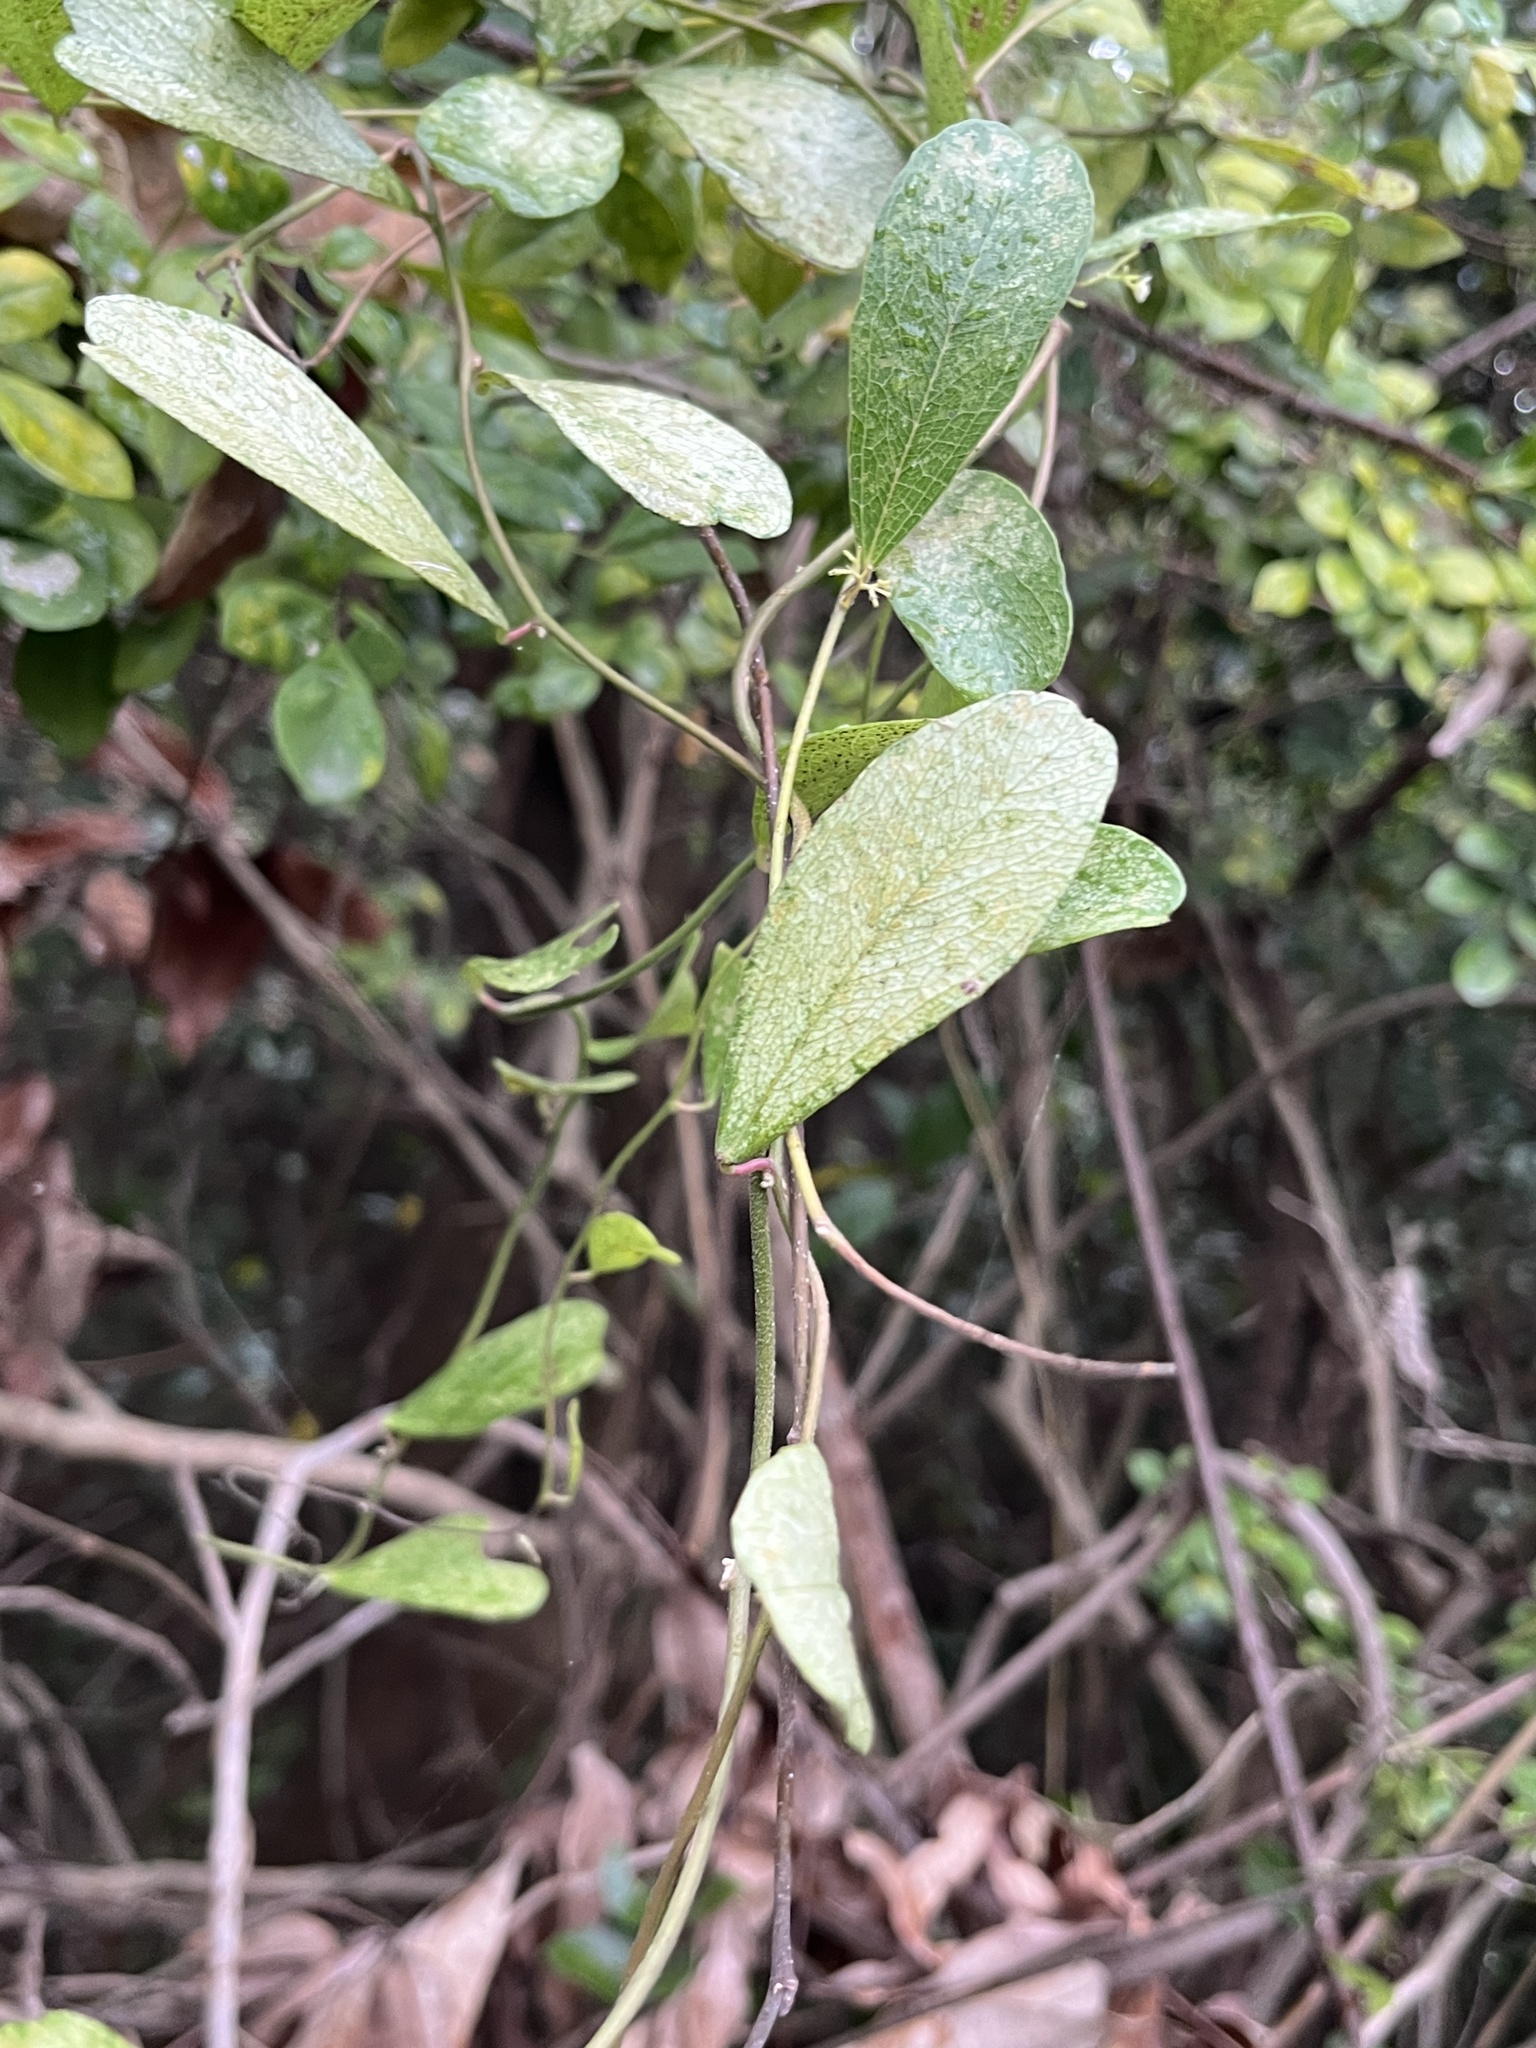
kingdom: Plantae
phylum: Tracheophyta
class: Magnoliopsida
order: Ranunculales
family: Menispermaceae
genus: Cocculus
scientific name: Cocculus orbiculatus
